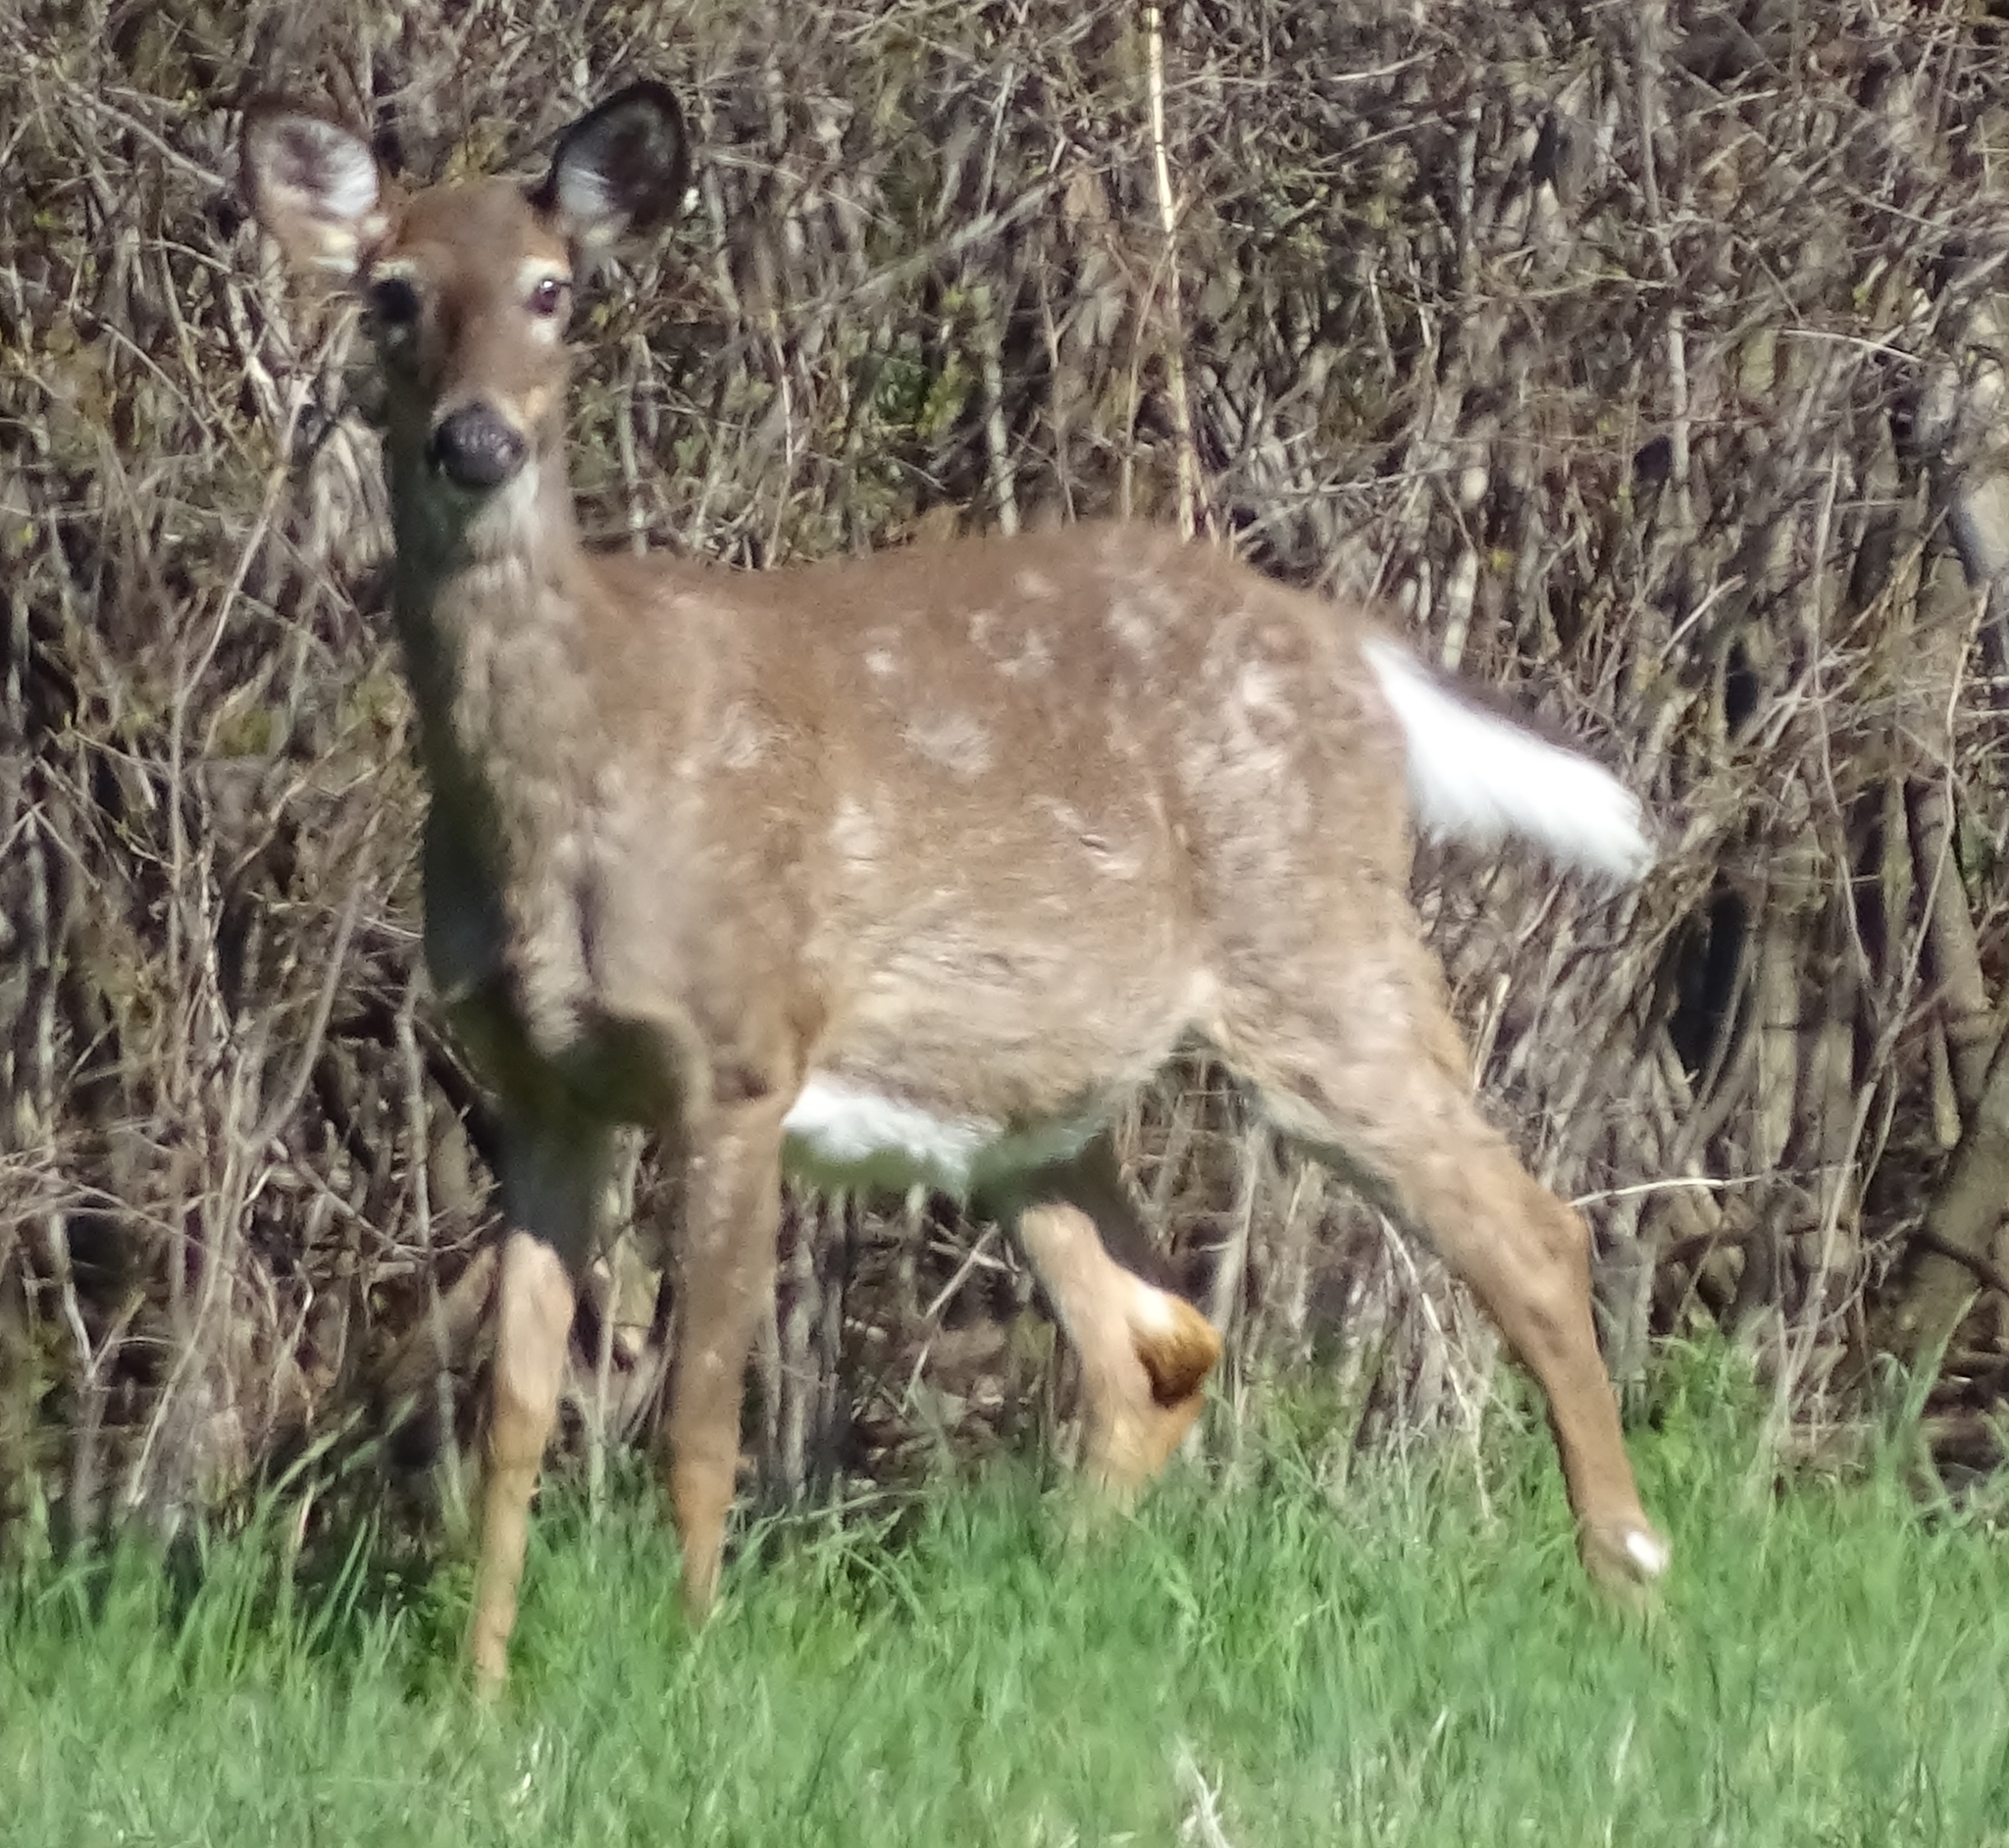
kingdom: Animalia
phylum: Chordata
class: Mammalia
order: Artiodactyla
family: Cervidae
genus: Odocoileus
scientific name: Odocoileus virginianus
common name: White-tailed deer
